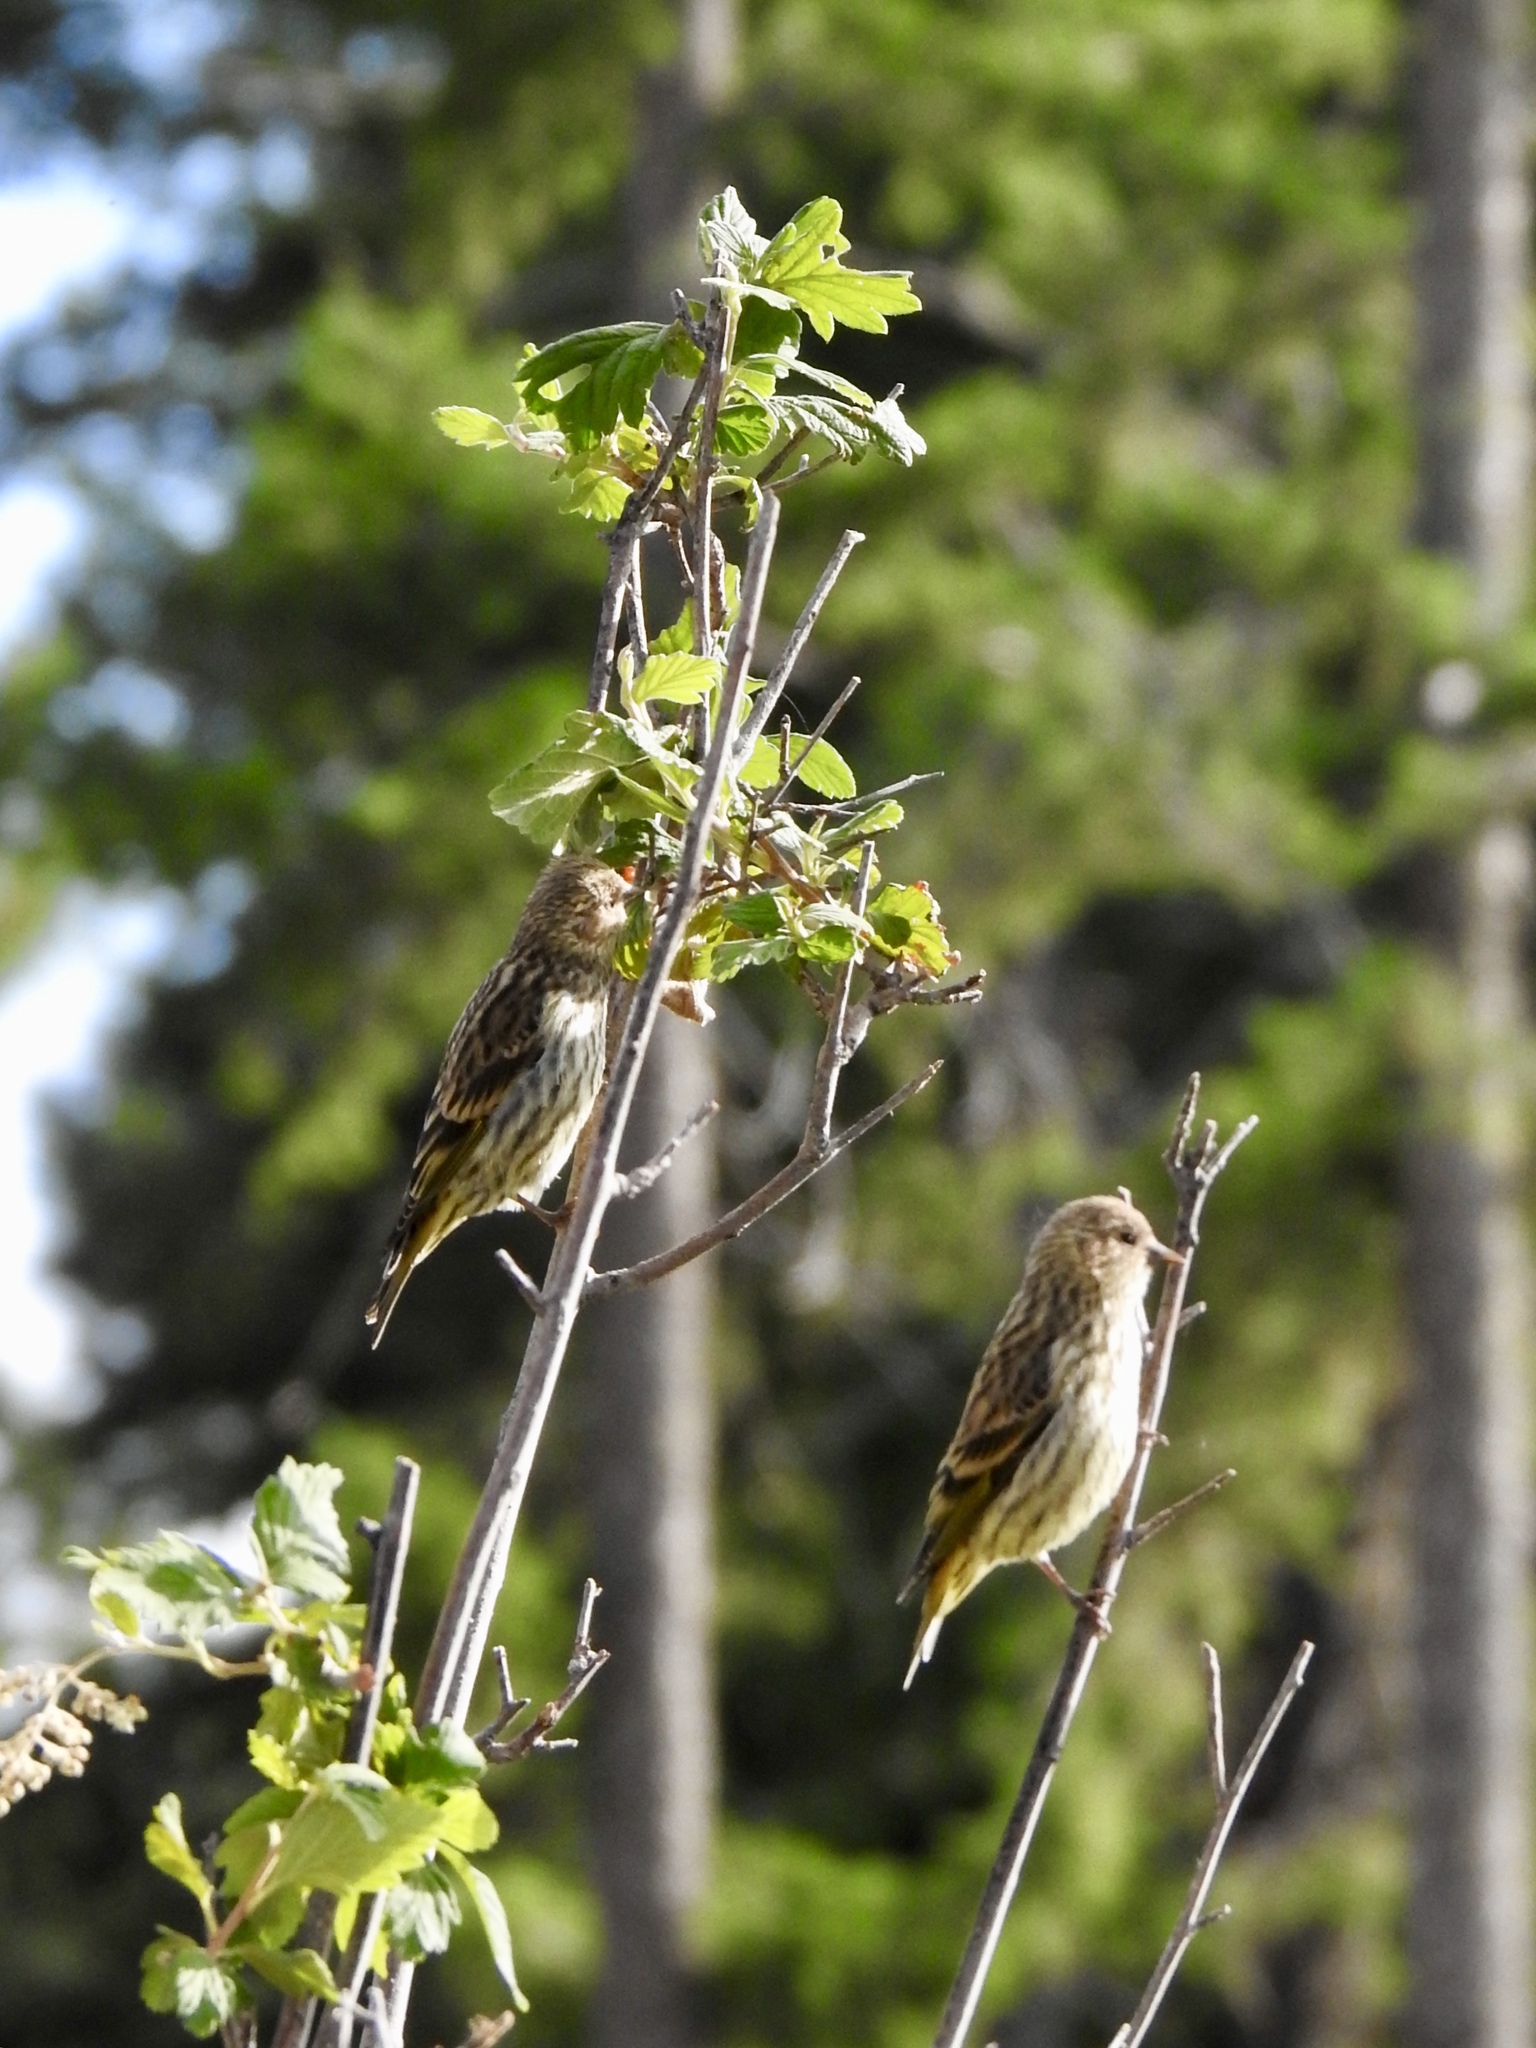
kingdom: Animalia
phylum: Chordata
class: Aves
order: Passeriformes
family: Fringillidae
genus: Spinus
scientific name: Spinus pinus
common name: Pine siskin
